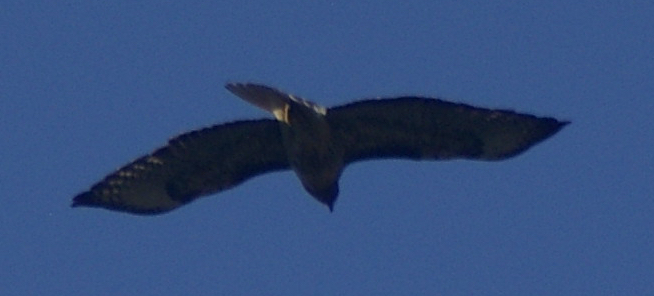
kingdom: Animalia
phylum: Chordata
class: Aves
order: Accipitriformes
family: Accipitridae
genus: Buteo
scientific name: Buteo jamaicensis
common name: Red-tailed hawk
